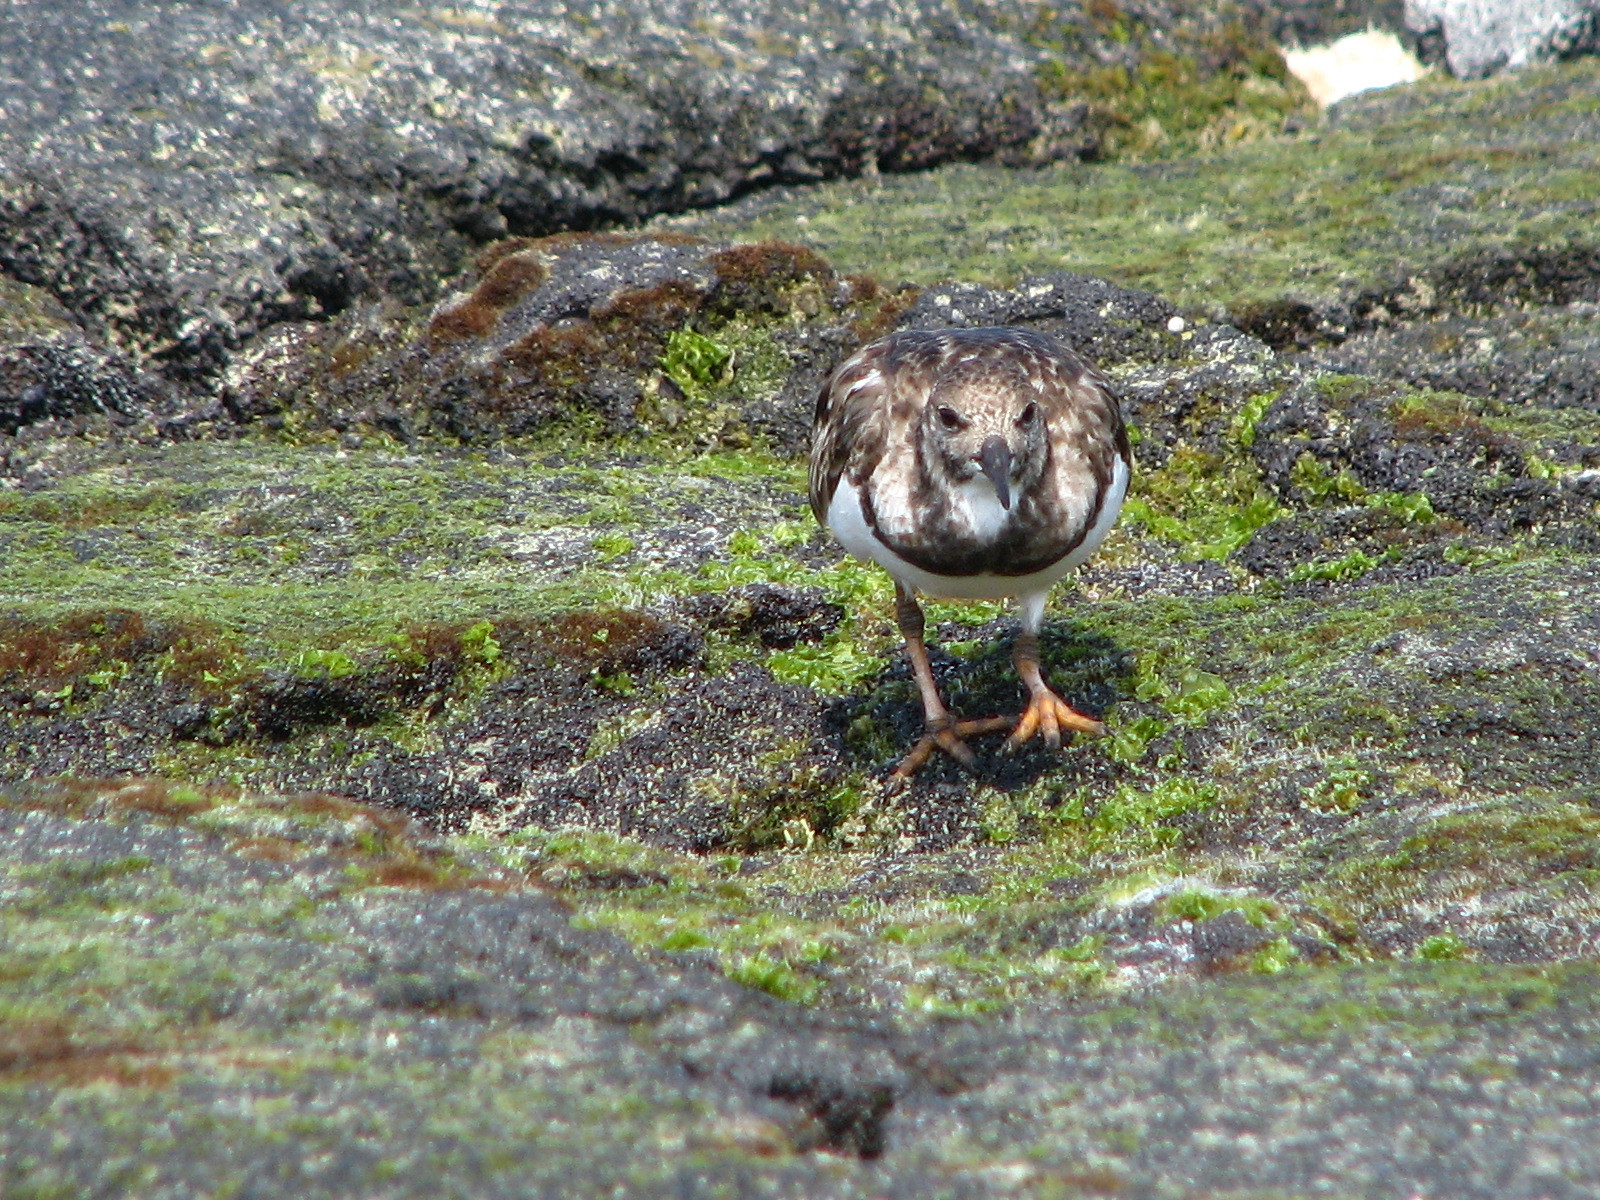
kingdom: Animalia
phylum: Chordata
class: Aves
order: Charadriiformes
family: Scolopacidae
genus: Arenaria
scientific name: Arenaria interpres
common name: Ruddy turnstone
